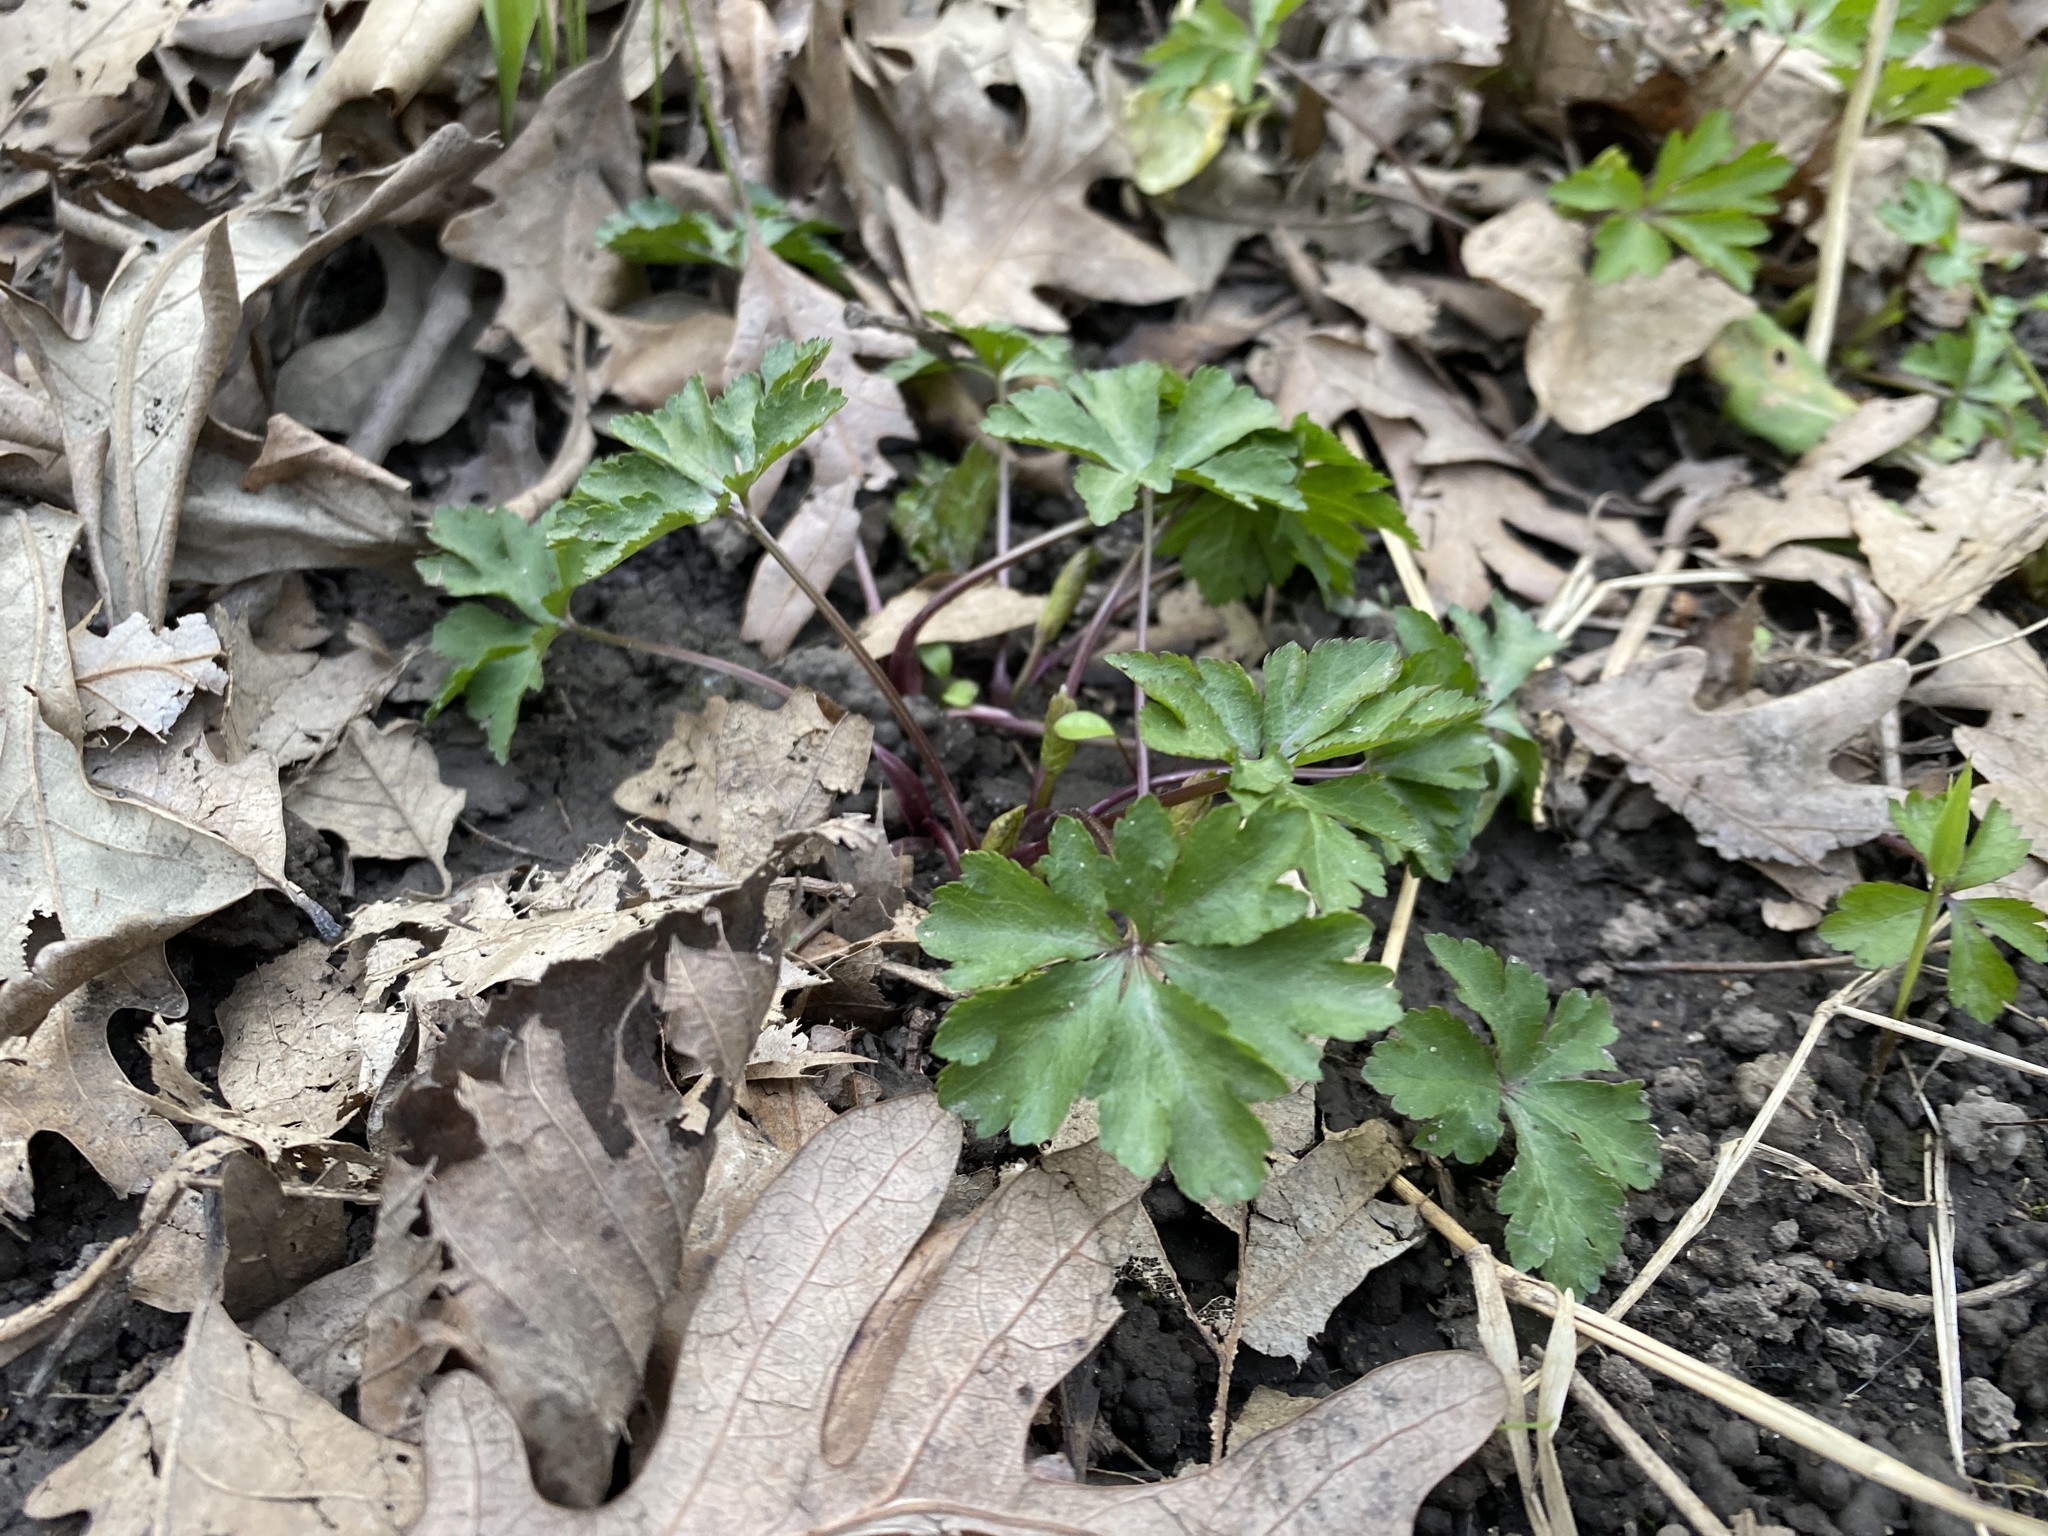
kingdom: Plantae
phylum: Tracheophyta
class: Magnoliopsida
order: Geraniales
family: Geraniaceae
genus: Geranium
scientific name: Geranium maculatum
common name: Spotted geranium
